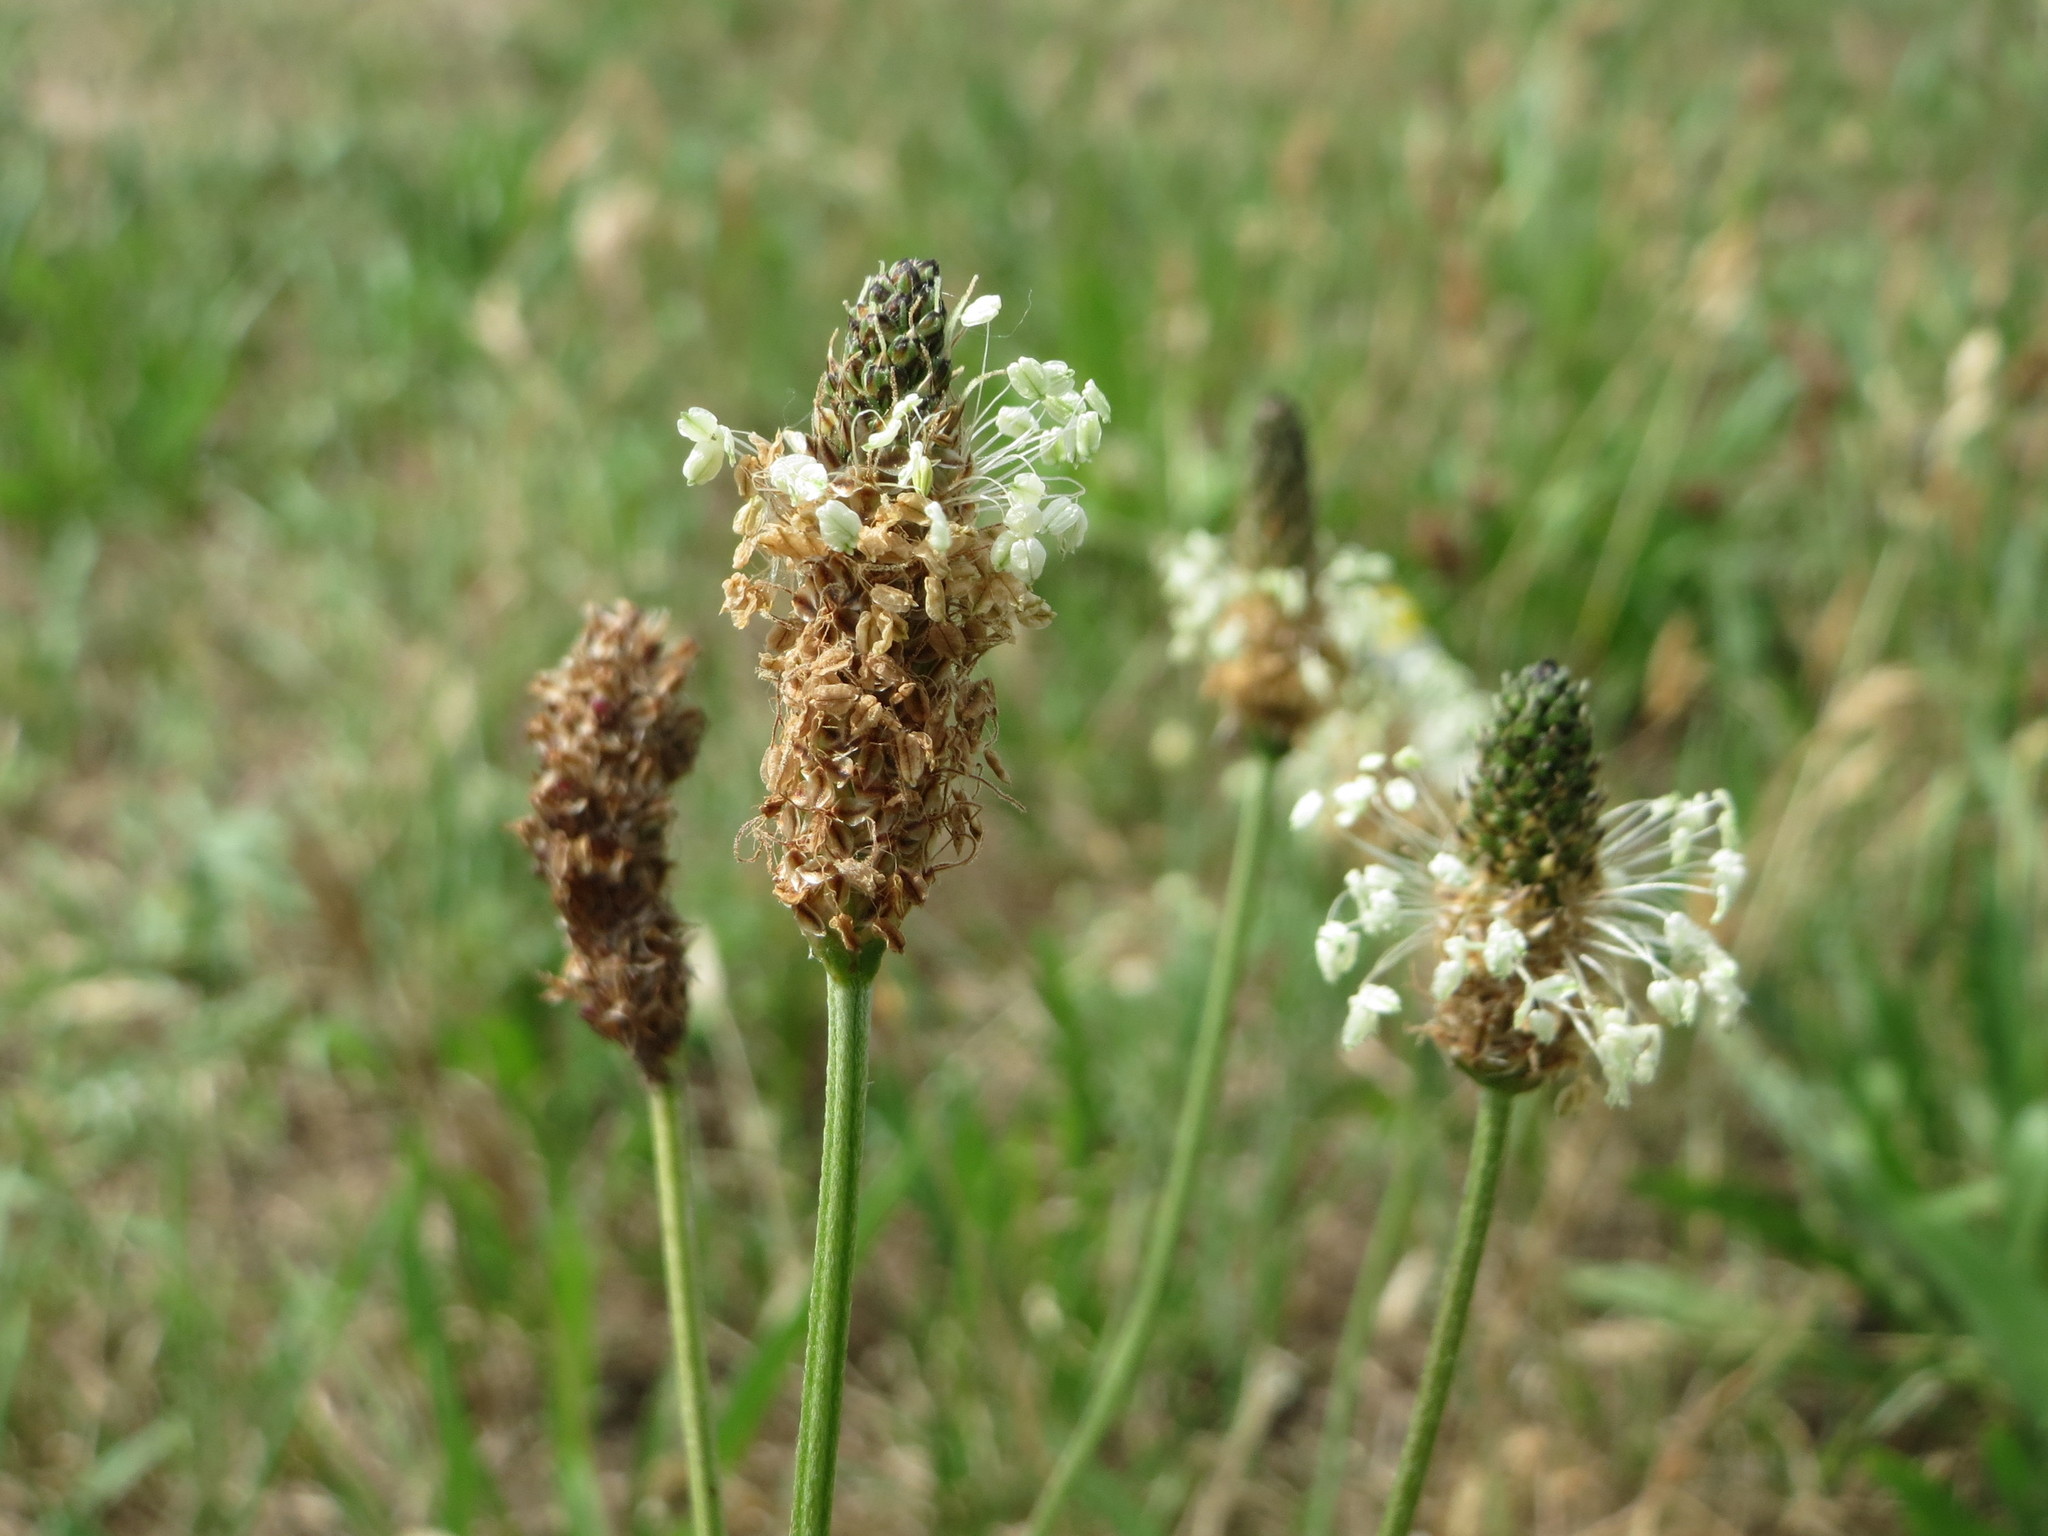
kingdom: Plantae
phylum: Tracheophyta
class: Magnoliopsida
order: Lamiales
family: Plantaginaceae
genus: Plantago
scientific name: Plantago lanceolata
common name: Ribwort plantain
